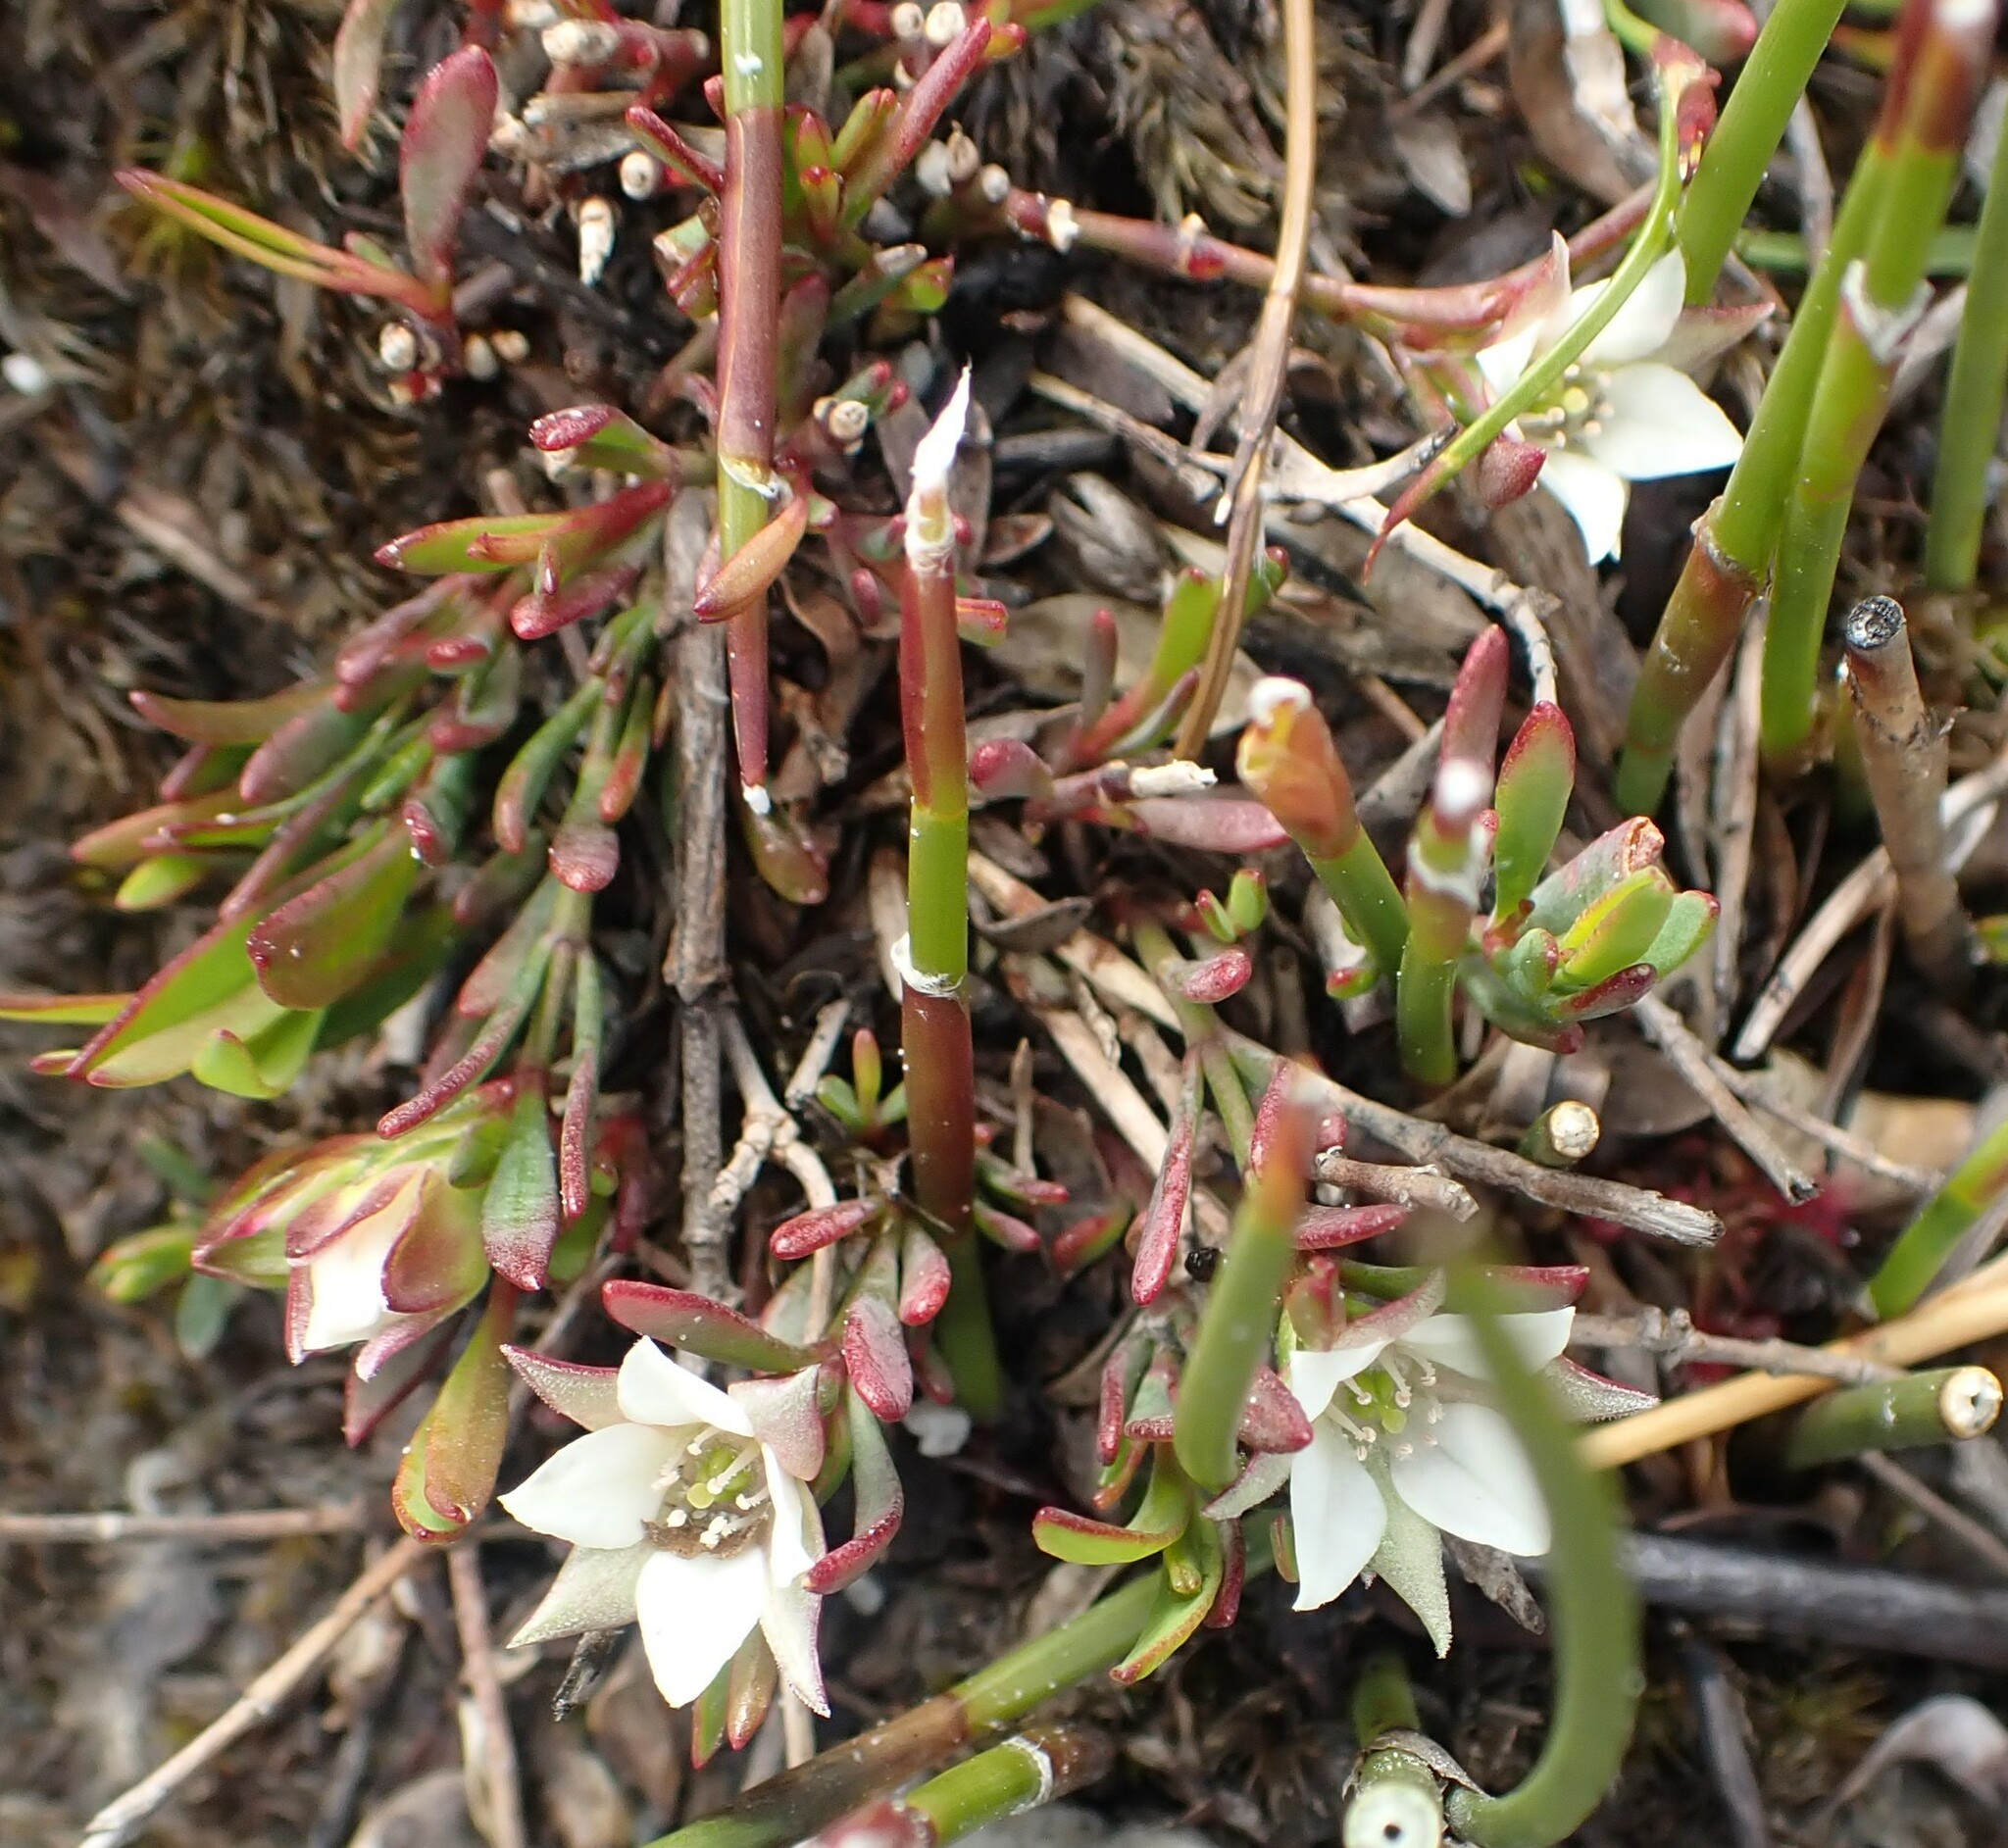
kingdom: Plantae
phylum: Tracheophyta
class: Magnoliopsida
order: Sapindales
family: Rutaceae
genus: Boronia
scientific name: Boronia parviflora
